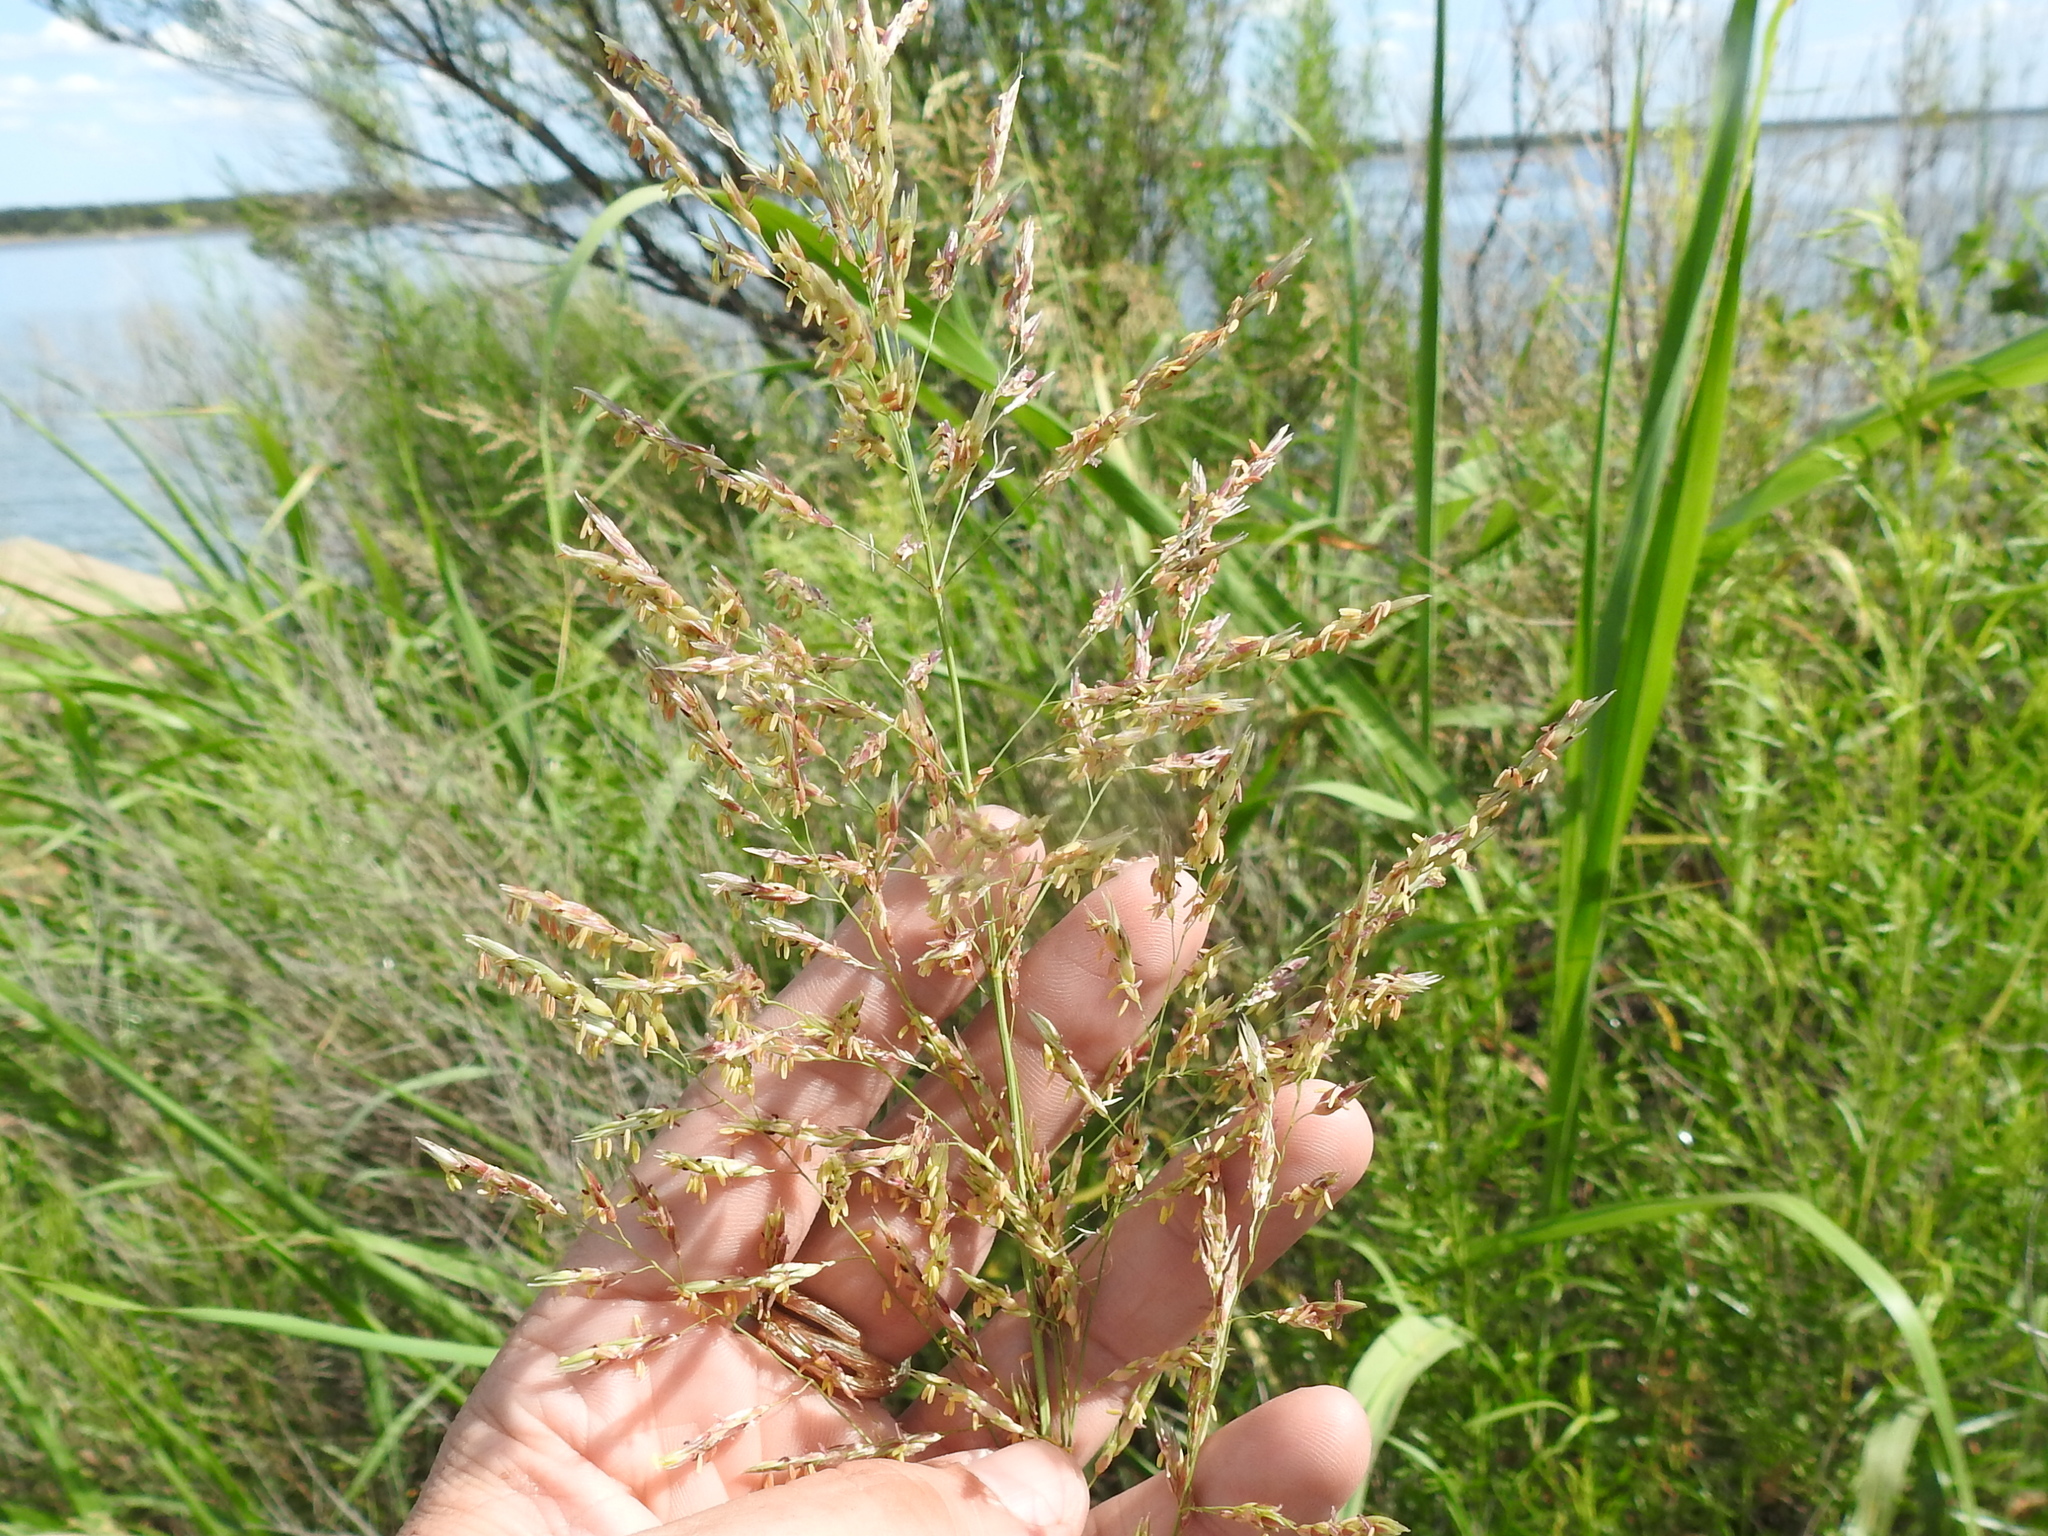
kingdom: Plantae
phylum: Tracheophyta
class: Liliopsida
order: Poales
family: Poaceae
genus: Sorghum
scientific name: Sorghum halepense
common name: Johnson-grass
